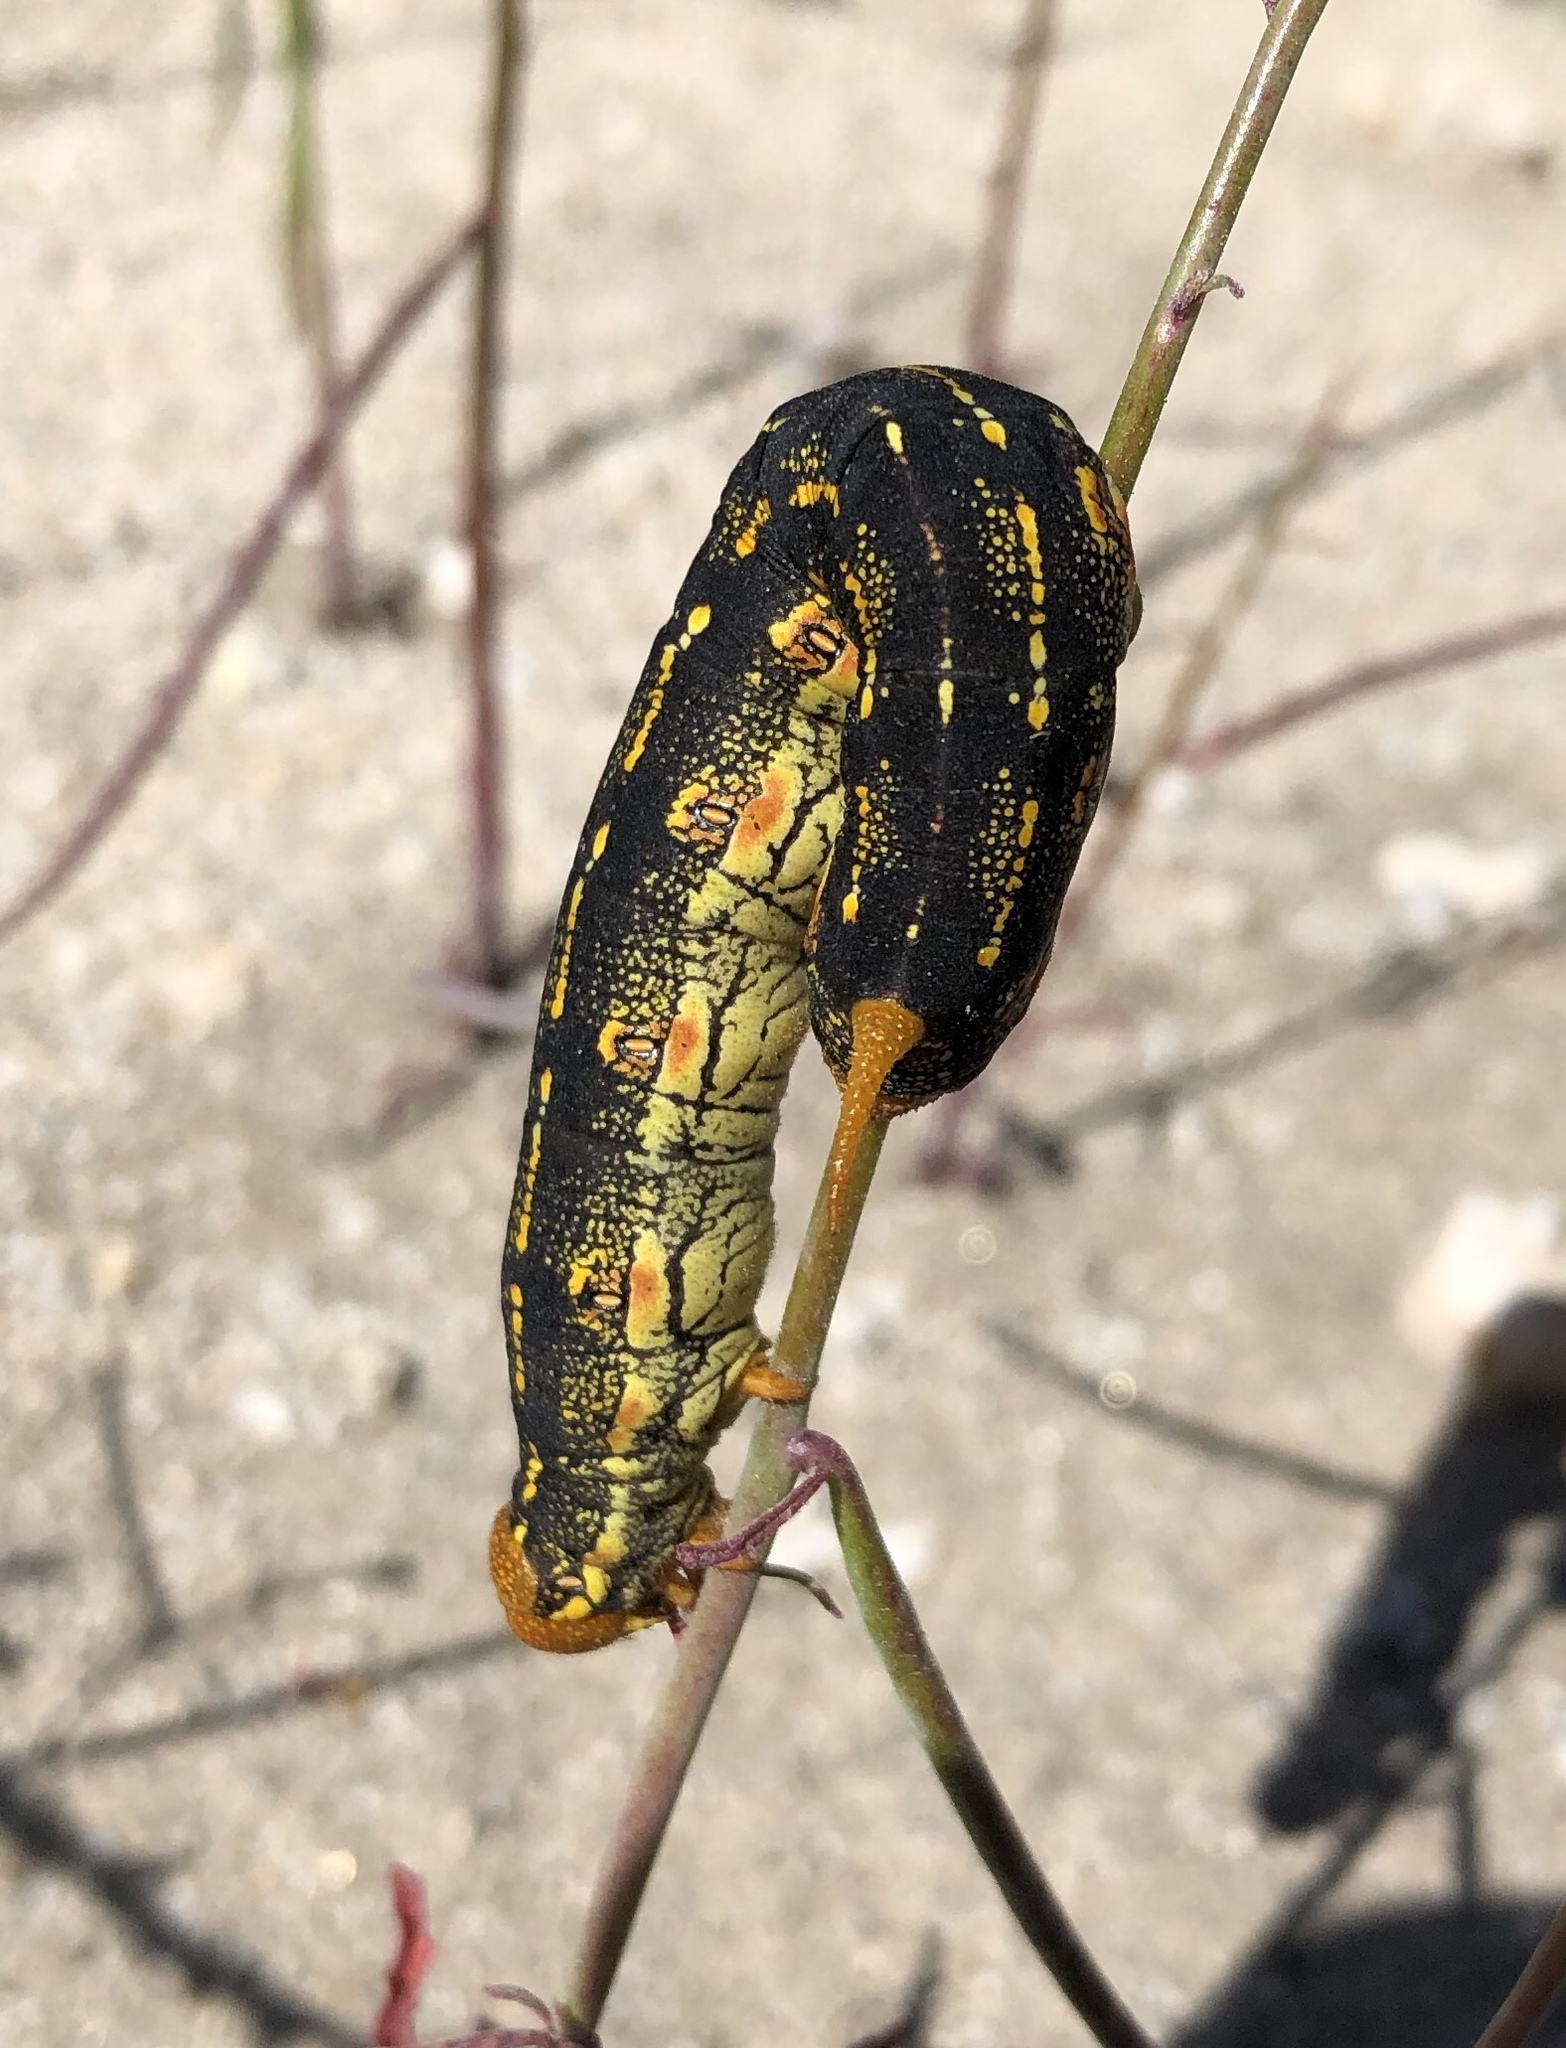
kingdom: Animalia
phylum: Arthropoda
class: Insecta
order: Lepidoptera
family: Sphingidae
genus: Hyles
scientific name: Hyles lineata
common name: White-lined sphinx
